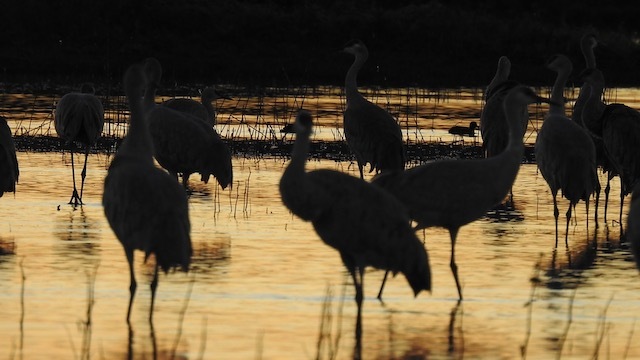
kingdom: Animalia
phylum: Chordata
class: Aves
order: Gruiformes
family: Gruidae
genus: Grus
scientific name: Grus canadensis
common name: Sandhill crane
